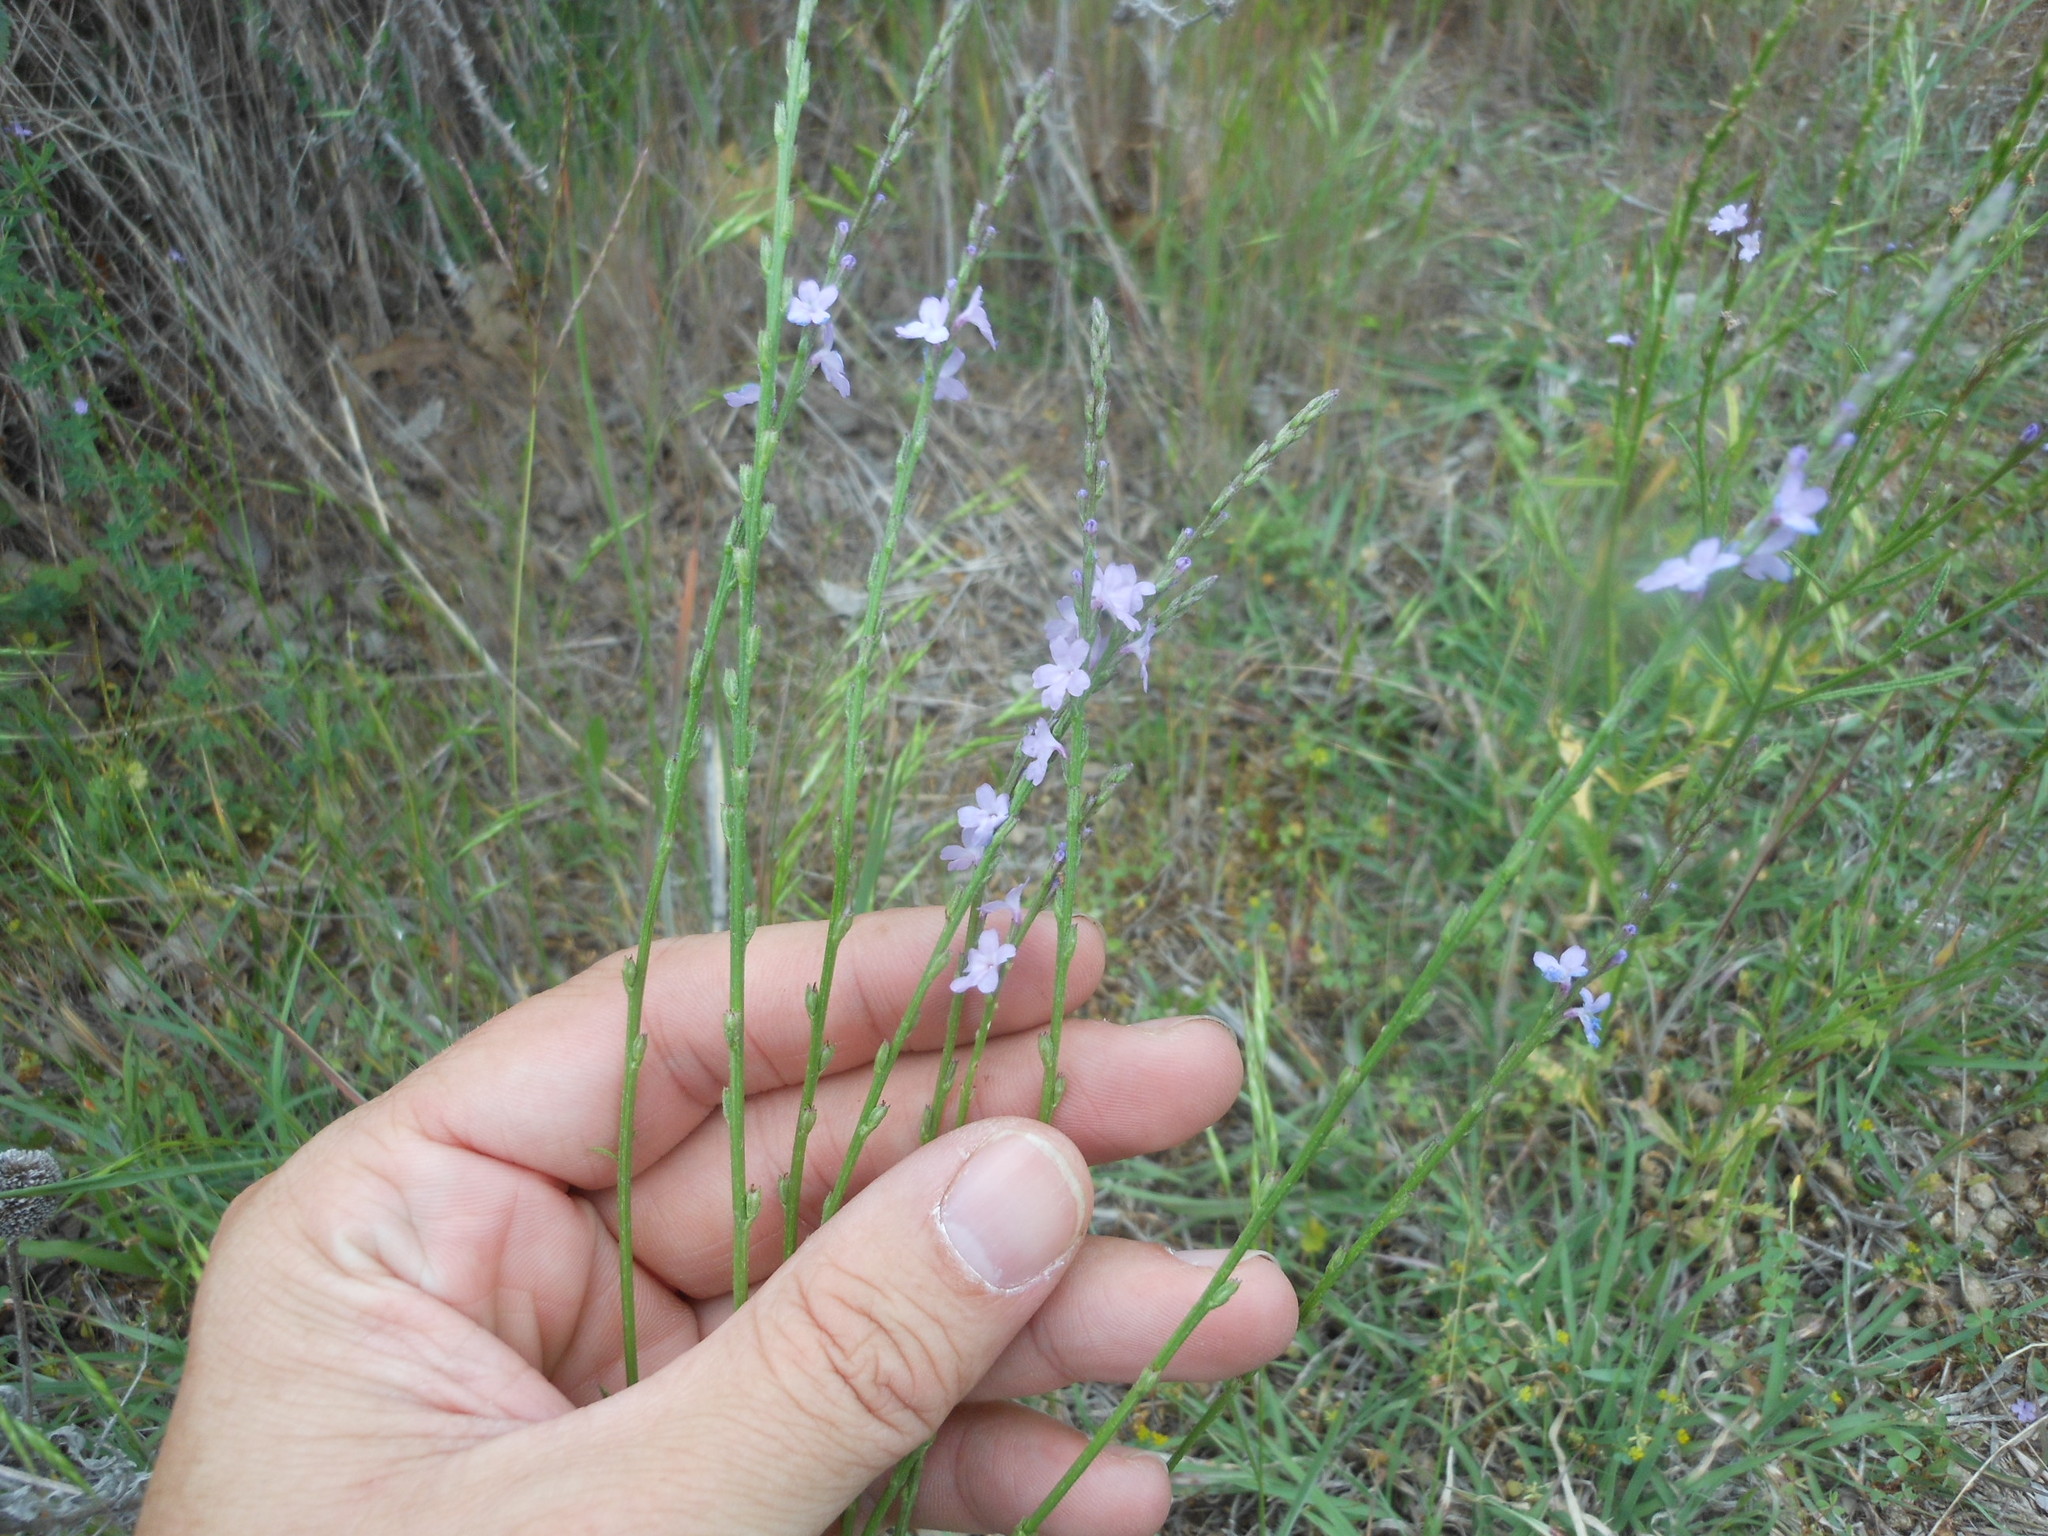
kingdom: Plantae
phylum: Tracheophyta
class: Magnoliopsida
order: Lamiales
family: Verbenaceae
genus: Verbena
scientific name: Verbena halei
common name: Texas vervain
